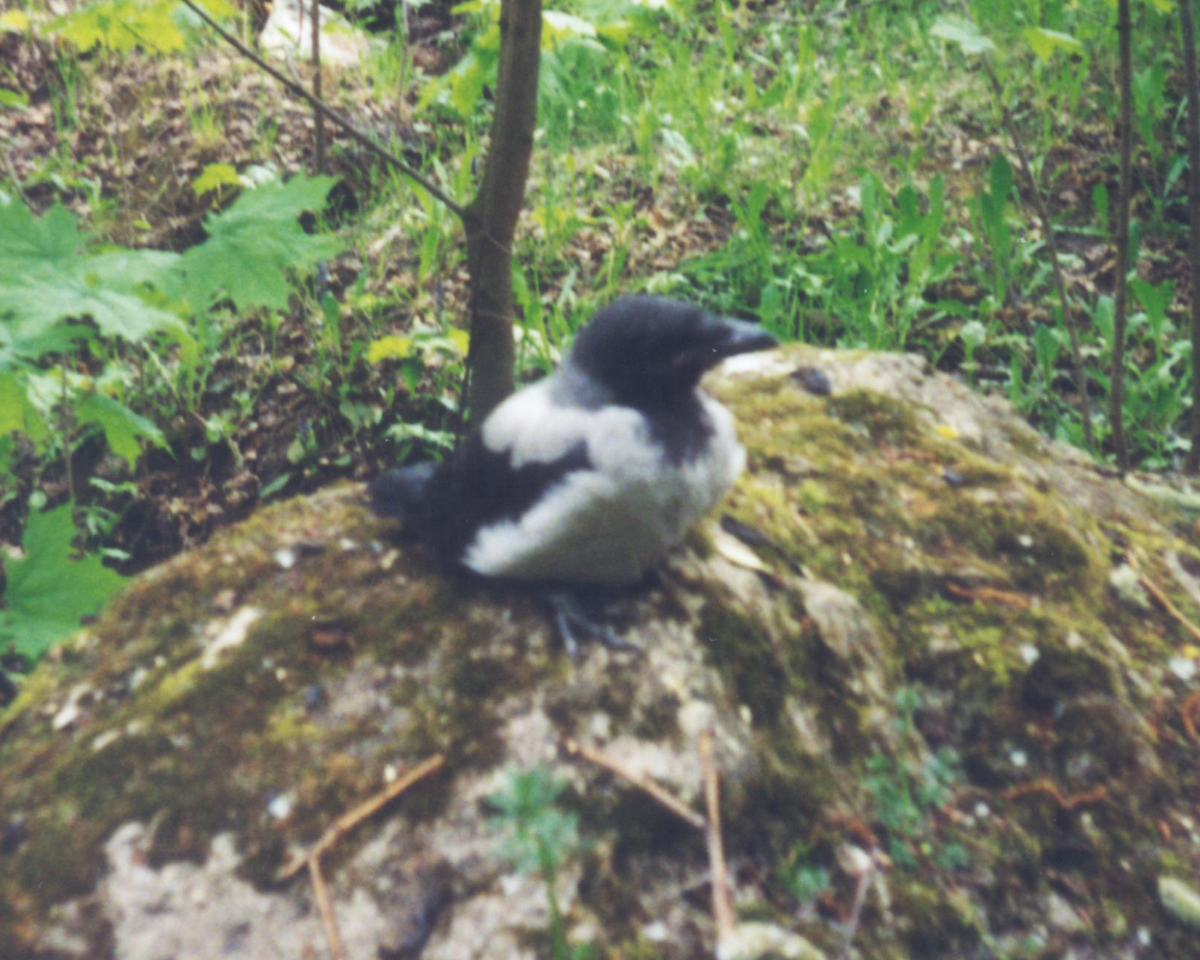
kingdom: Animalia
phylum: Chordata
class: Aves
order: Passeriformes
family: Corvidae
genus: Corvus
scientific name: Corvus cornix
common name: Hooded crow
